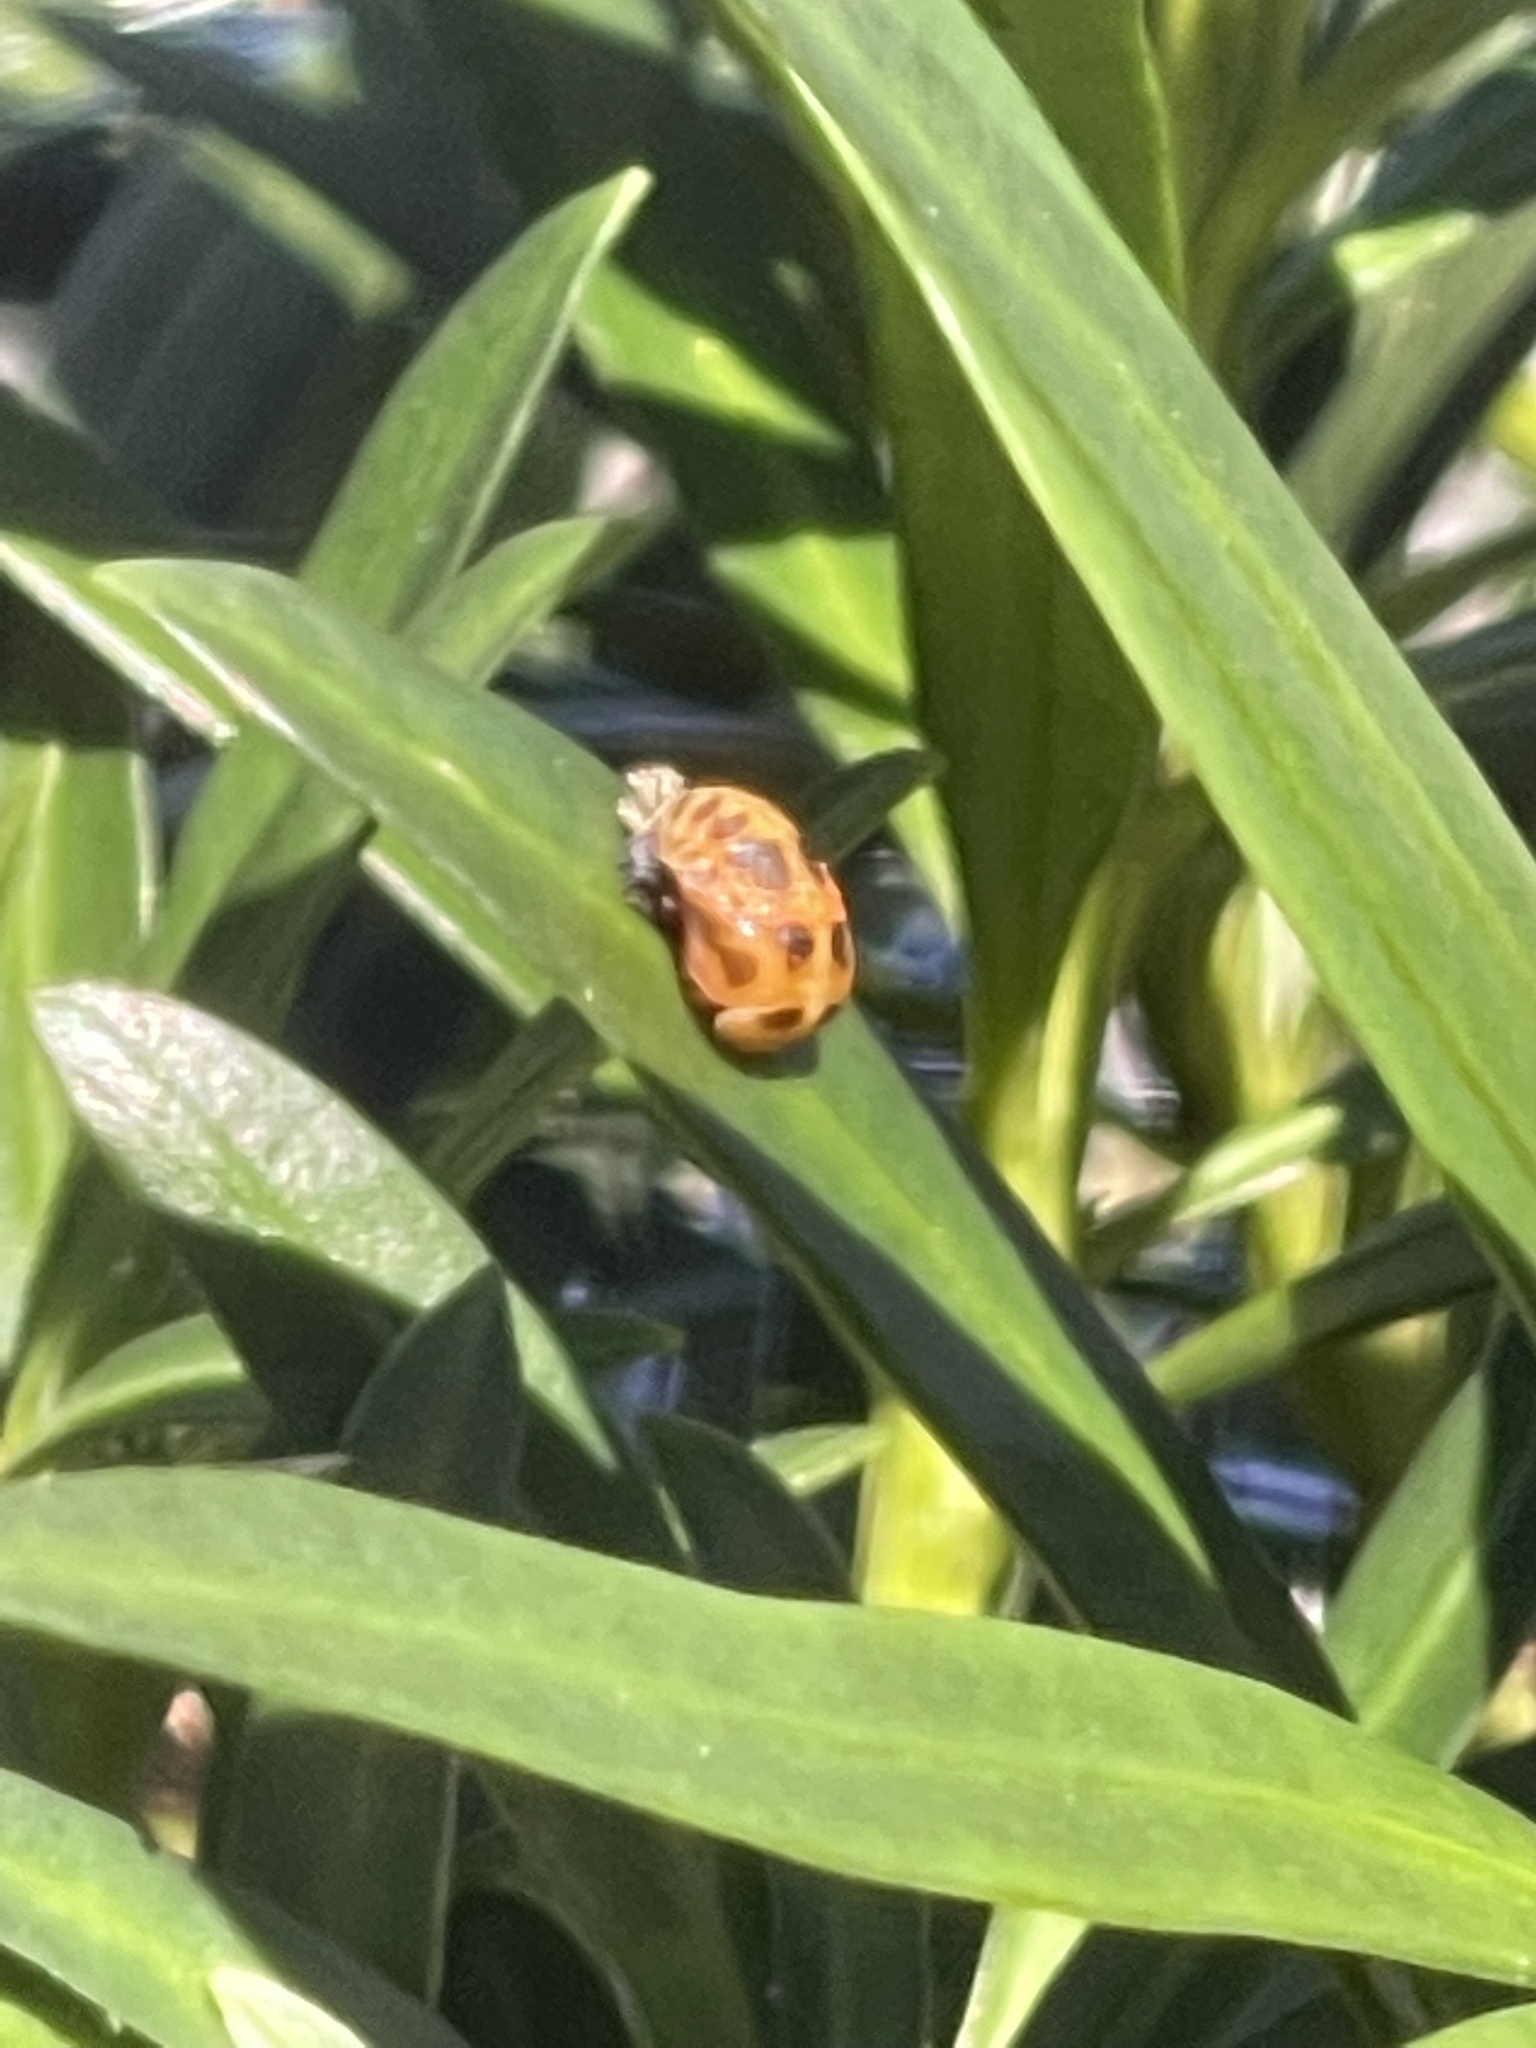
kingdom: Animalia
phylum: Arthropoda
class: Insecta
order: Coleoptera
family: Coccinellidae
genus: Harmonia
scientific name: Harmonia axyridis
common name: Harlequin ladybird
